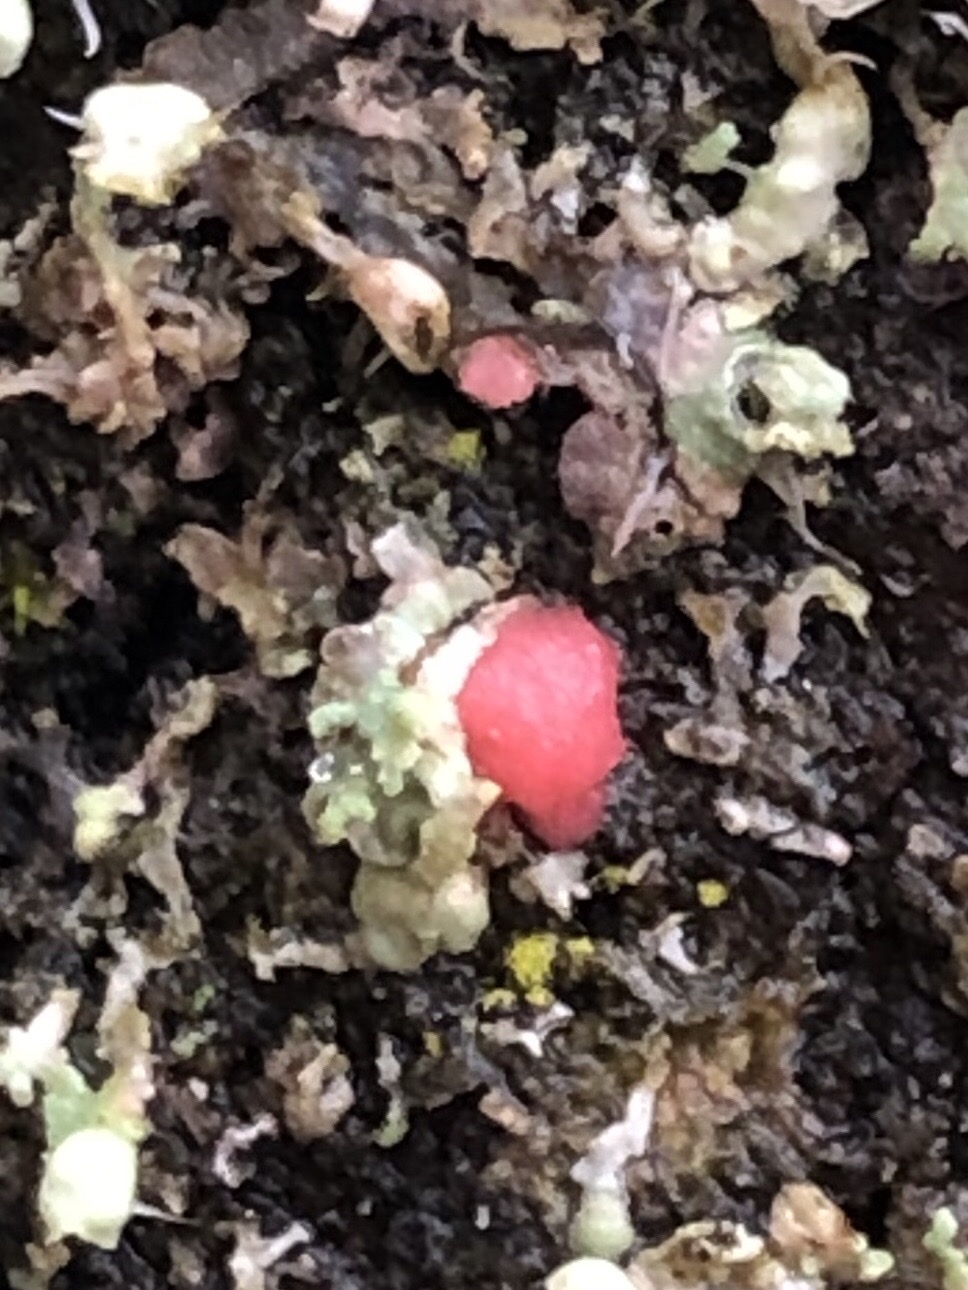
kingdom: Fungi
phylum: Ascomycota
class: Sordariomycetes
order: Hypocreales
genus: Illosporiopsis
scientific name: Illosporiopsis christiansenii
